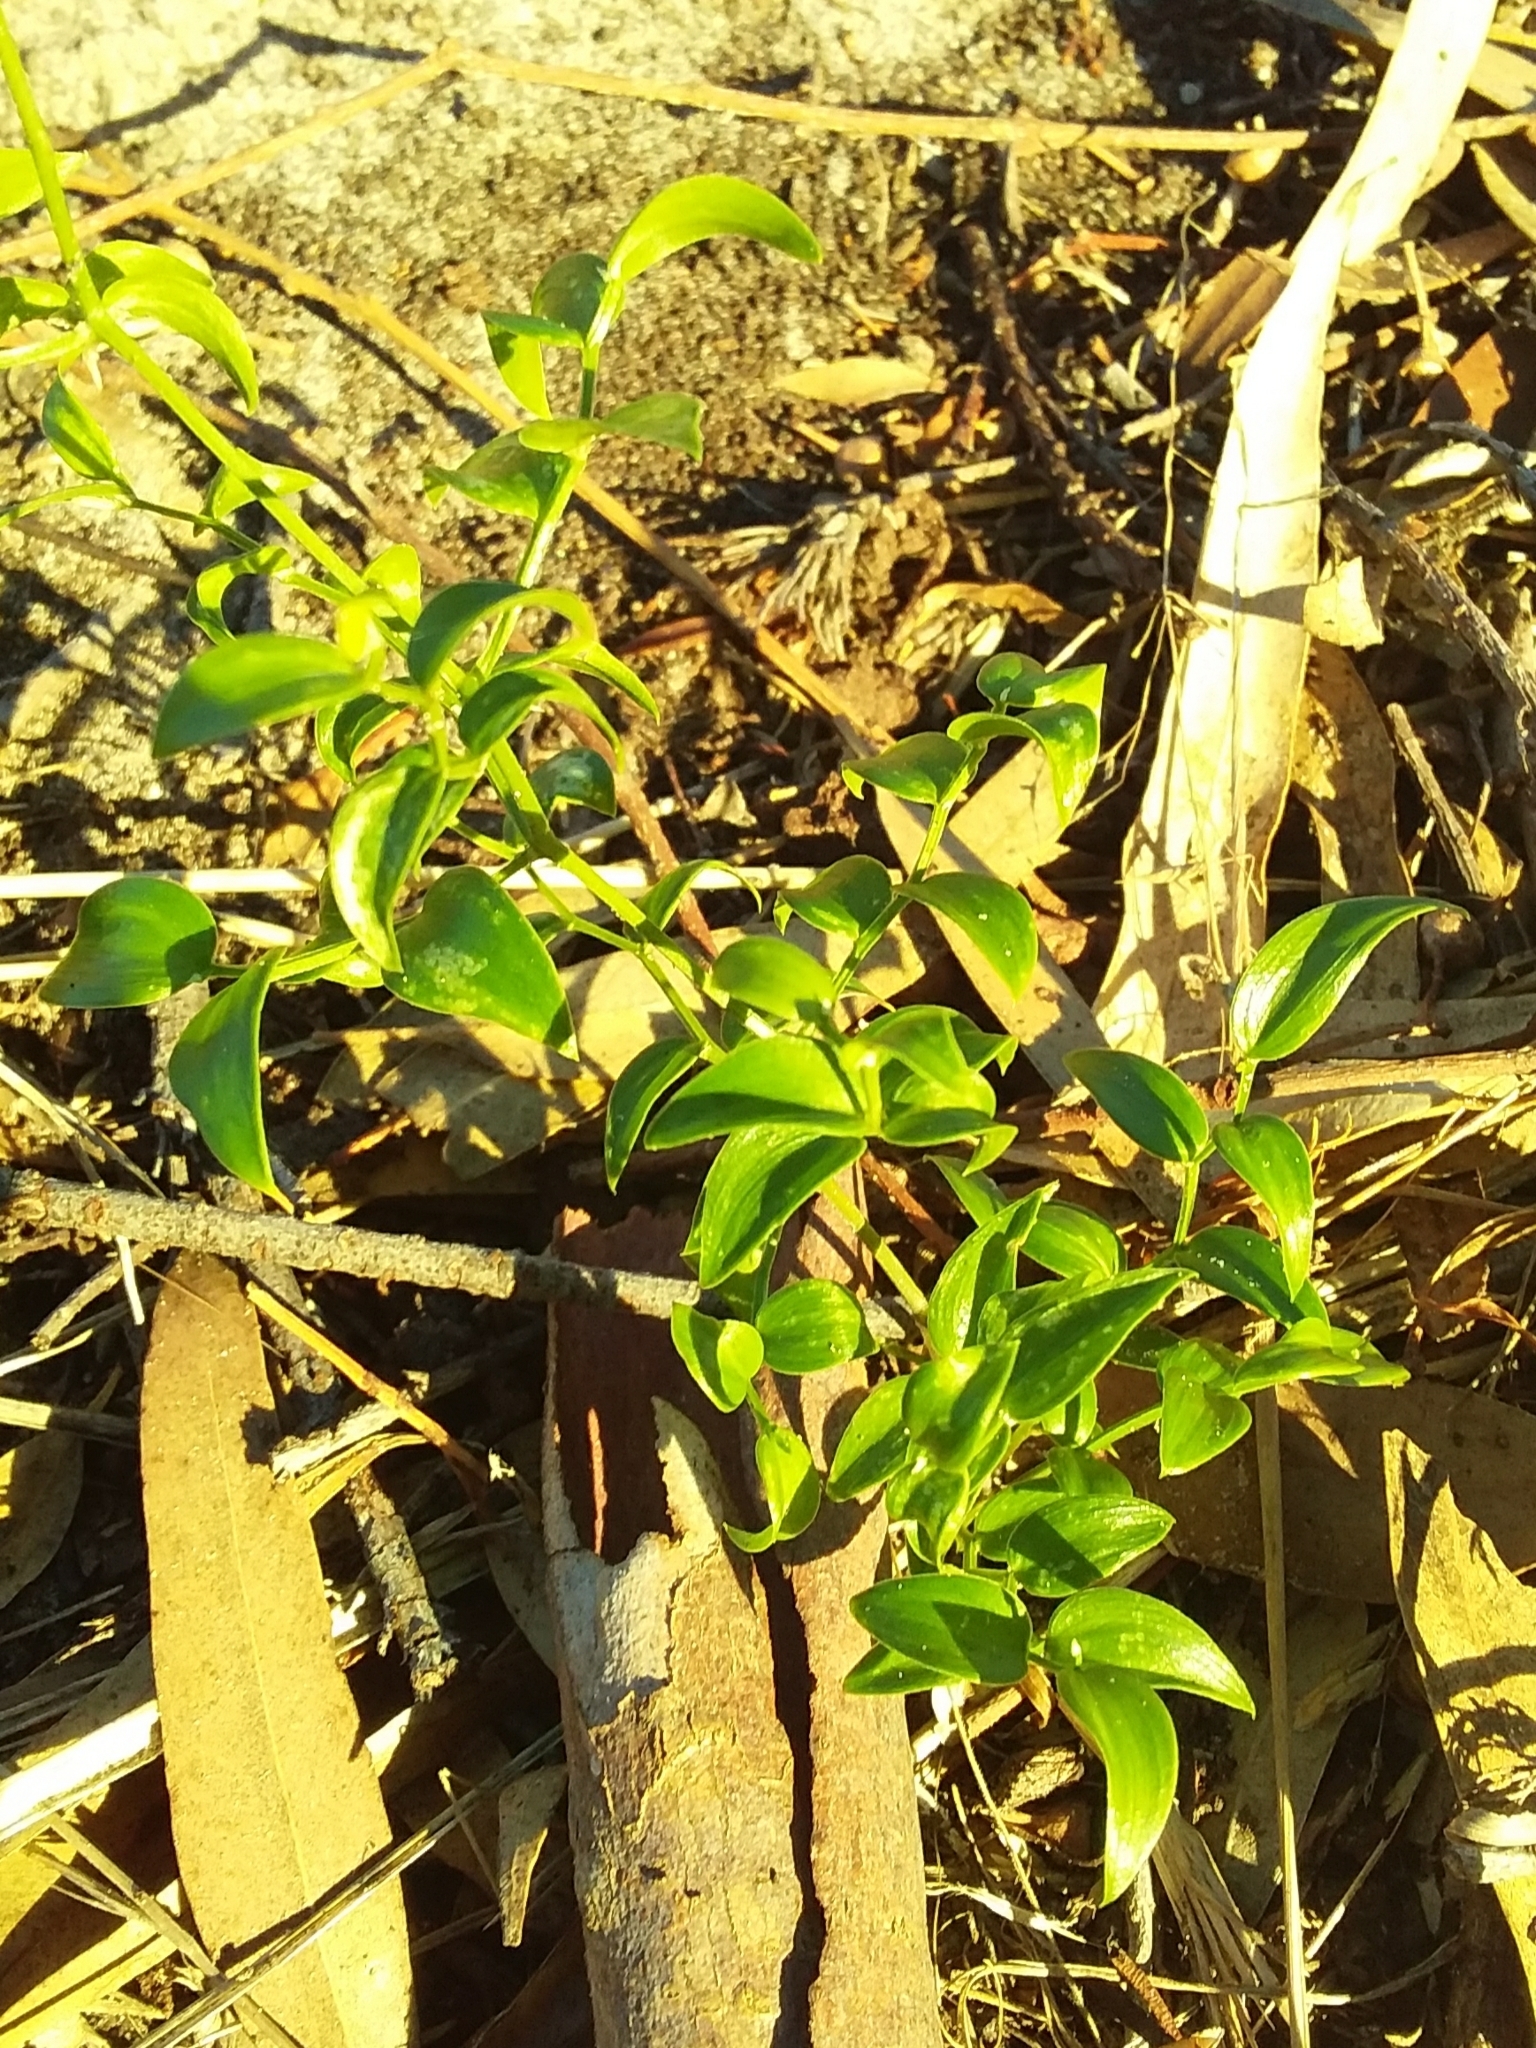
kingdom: Plantae
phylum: Tracheophyta
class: Liliopsida
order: Asparagales
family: Asparagaceae
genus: Asparagus
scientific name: Asparagus asparagoides
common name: African asparagus fern
